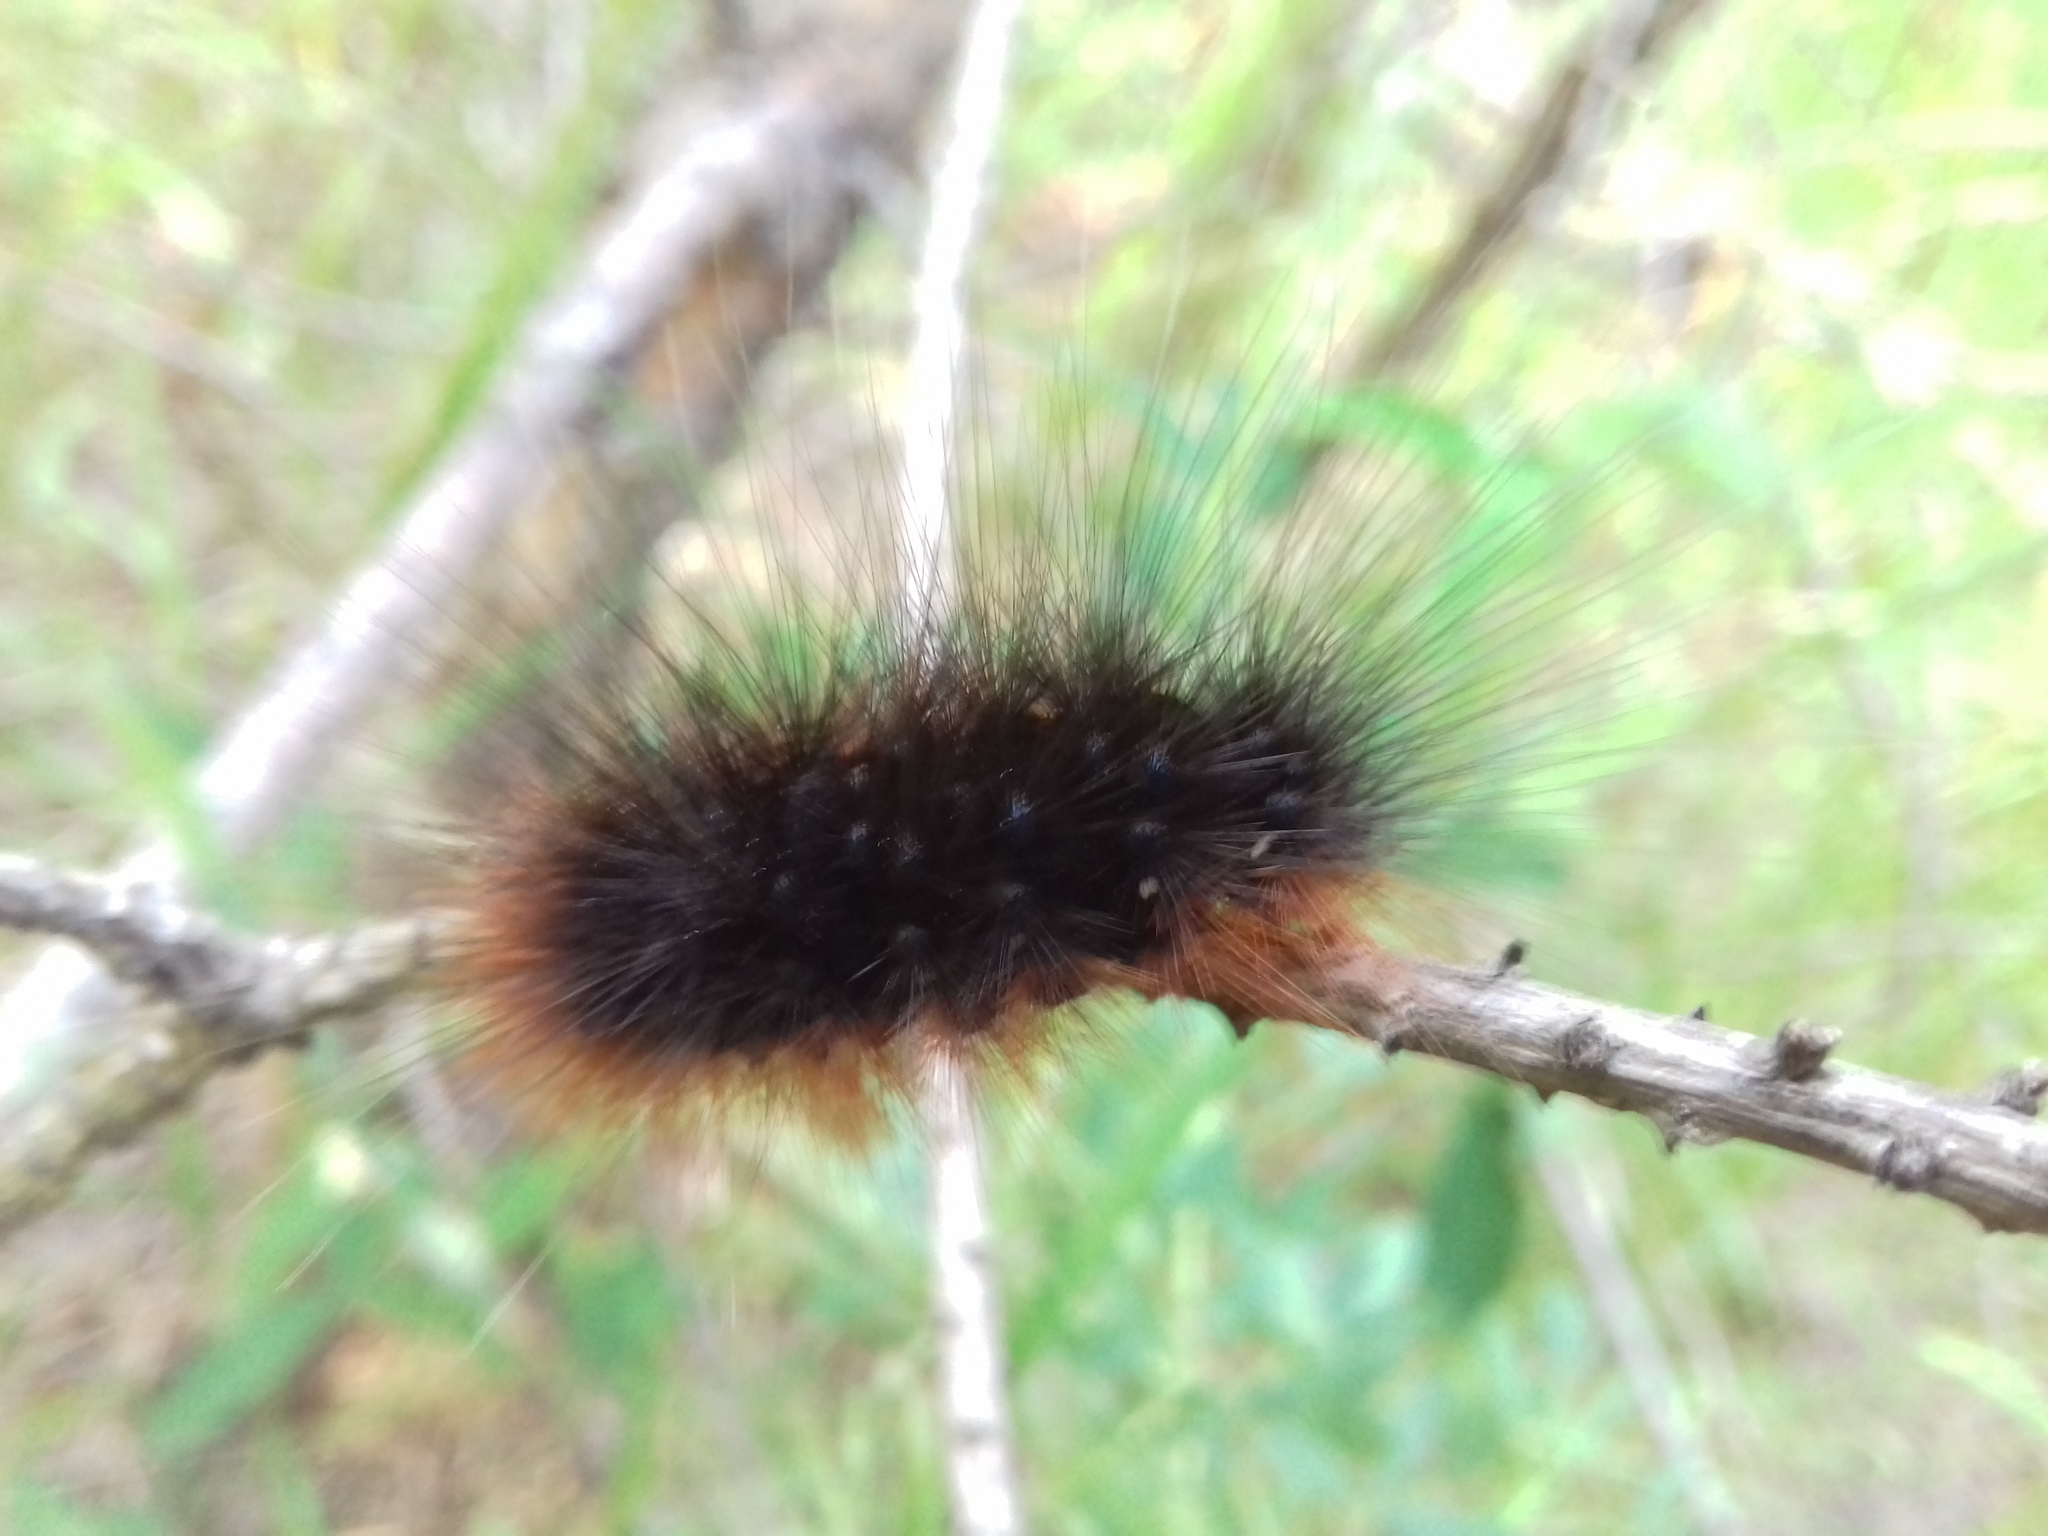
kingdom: Animalia
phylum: Arthropoda
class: Insecta
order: Lepidoptera
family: Erebidae
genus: Arctia
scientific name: Arctia caja
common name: Garden tiger
